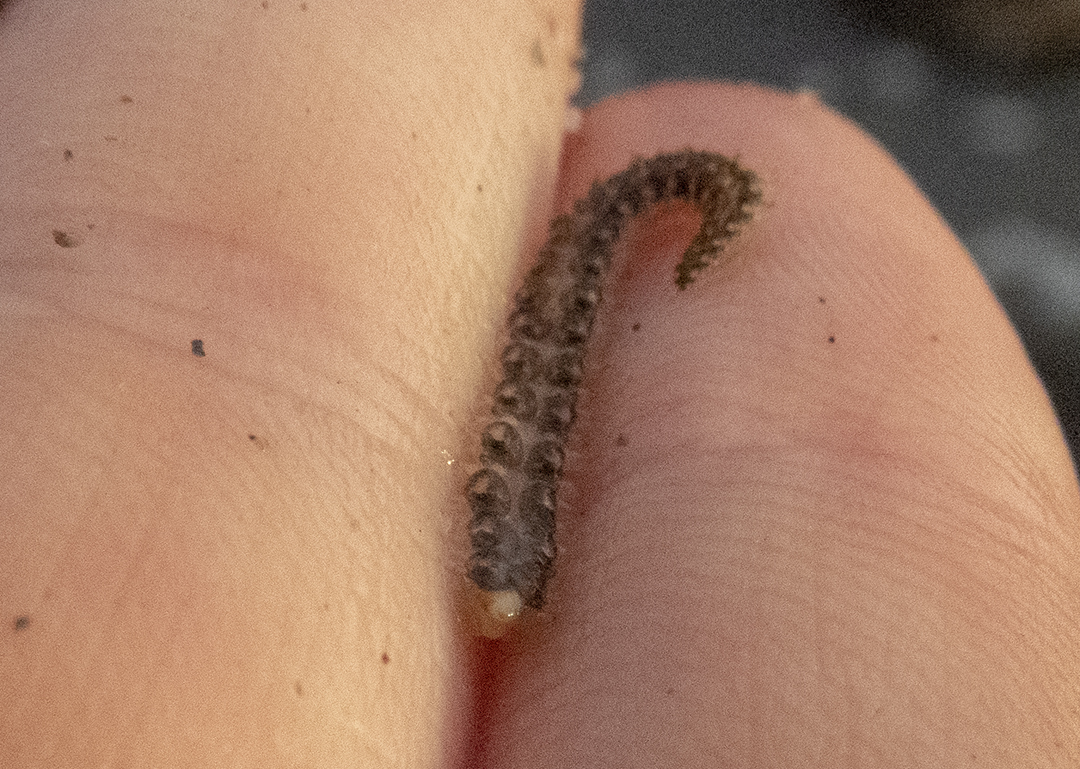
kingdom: Animalia
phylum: Annelida
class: Polychaeta
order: Phyllodocida
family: Polynoidae
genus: Lepidastheniella
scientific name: Lepidastheniella comma
